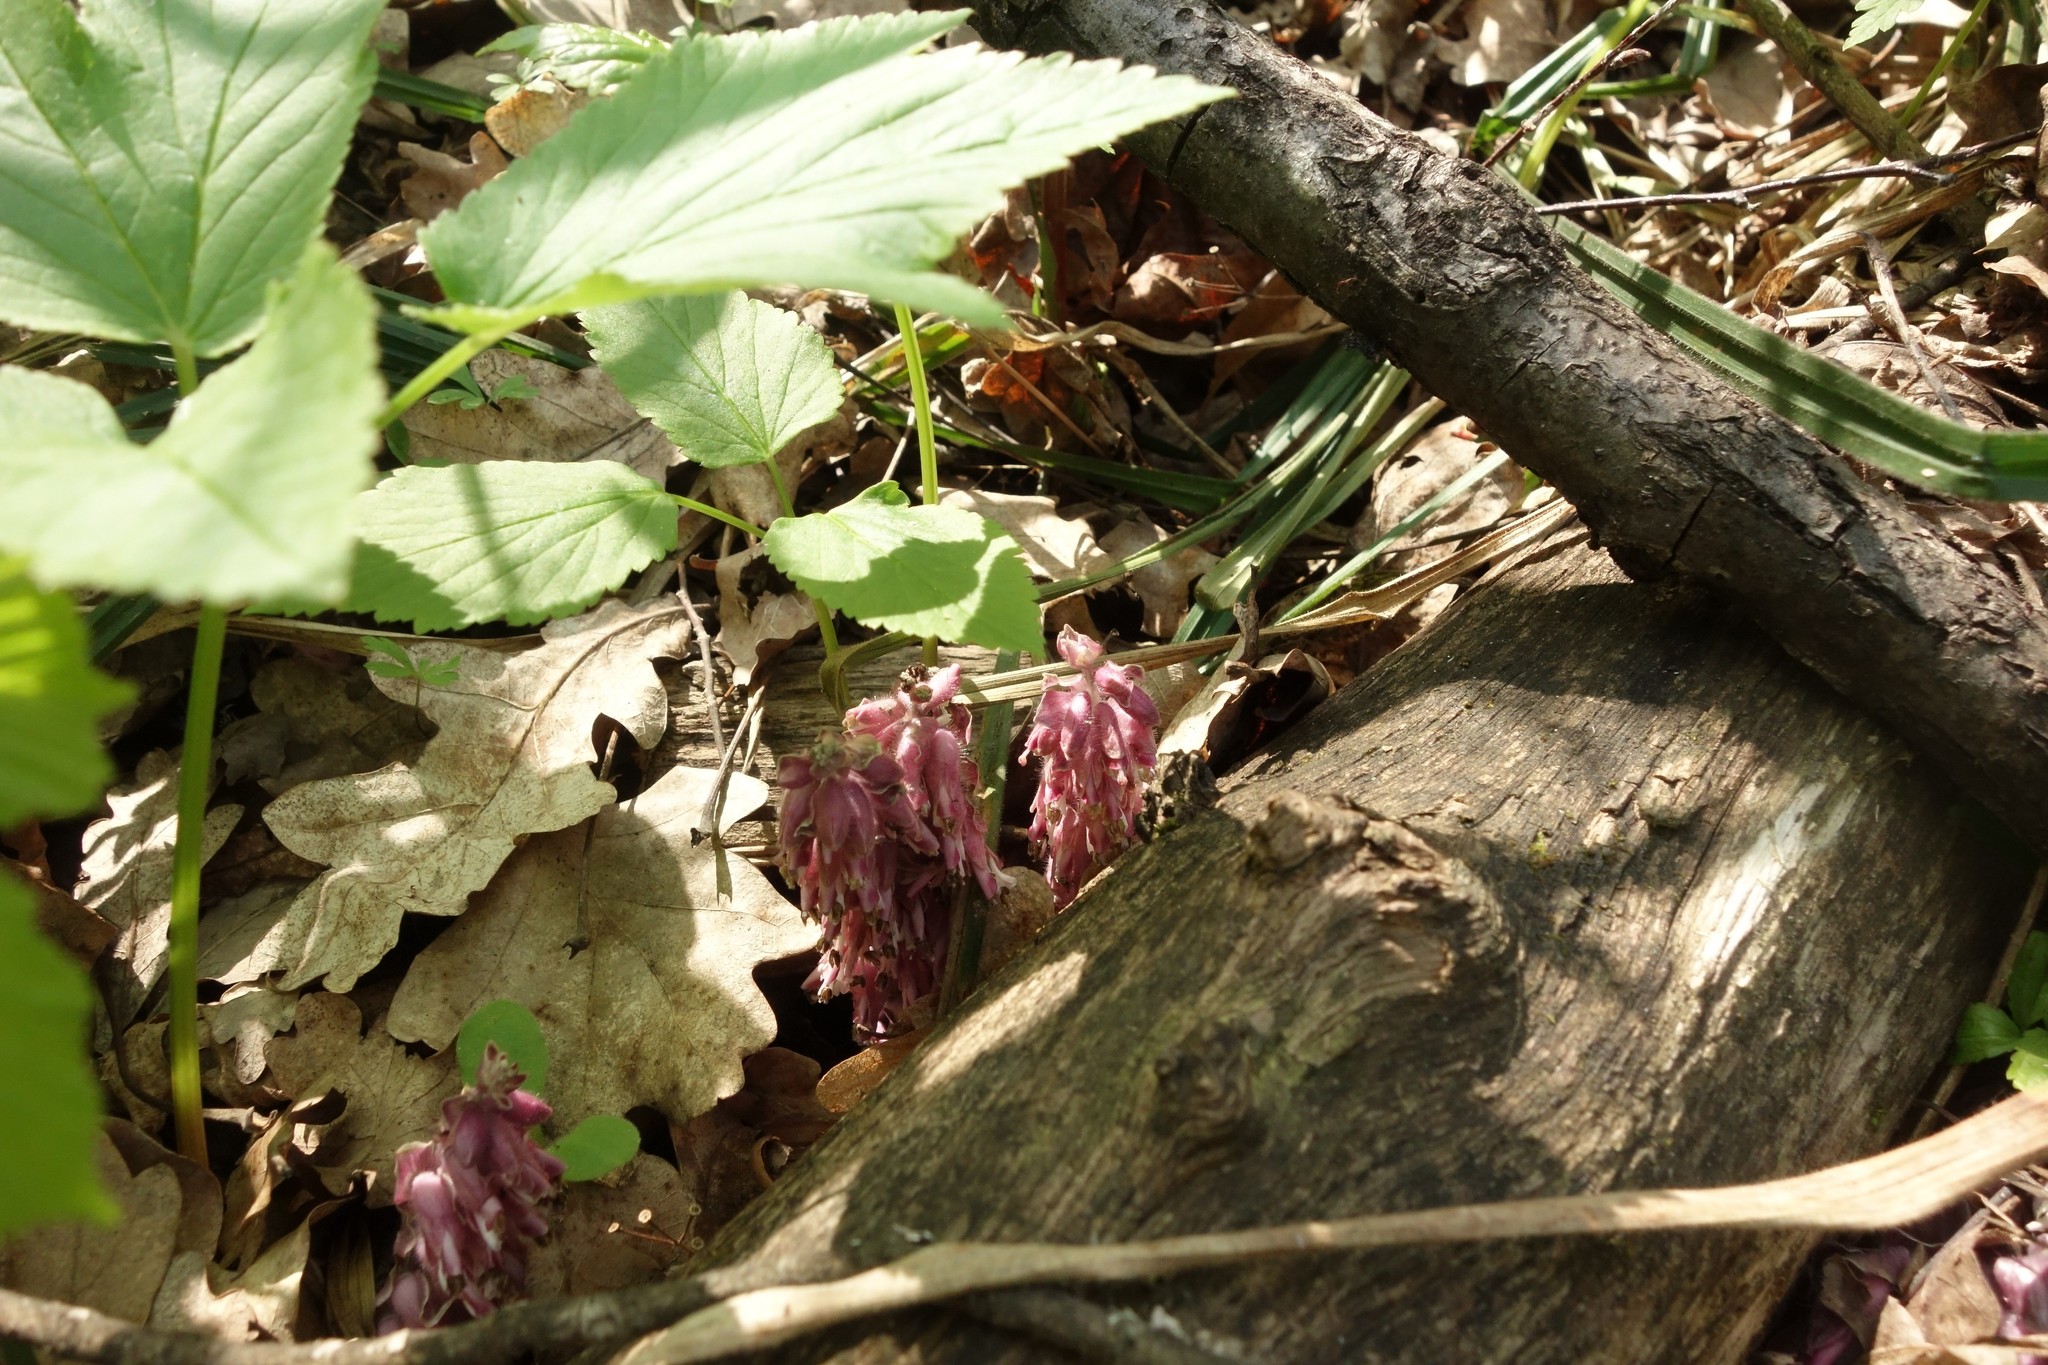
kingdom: Plantae
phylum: Tracheophyta
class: Magnoliopsida
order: Lamiales
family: Orobanchaceae
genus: Lathraea
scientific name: Lathraea squamaria
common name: Toothwort
